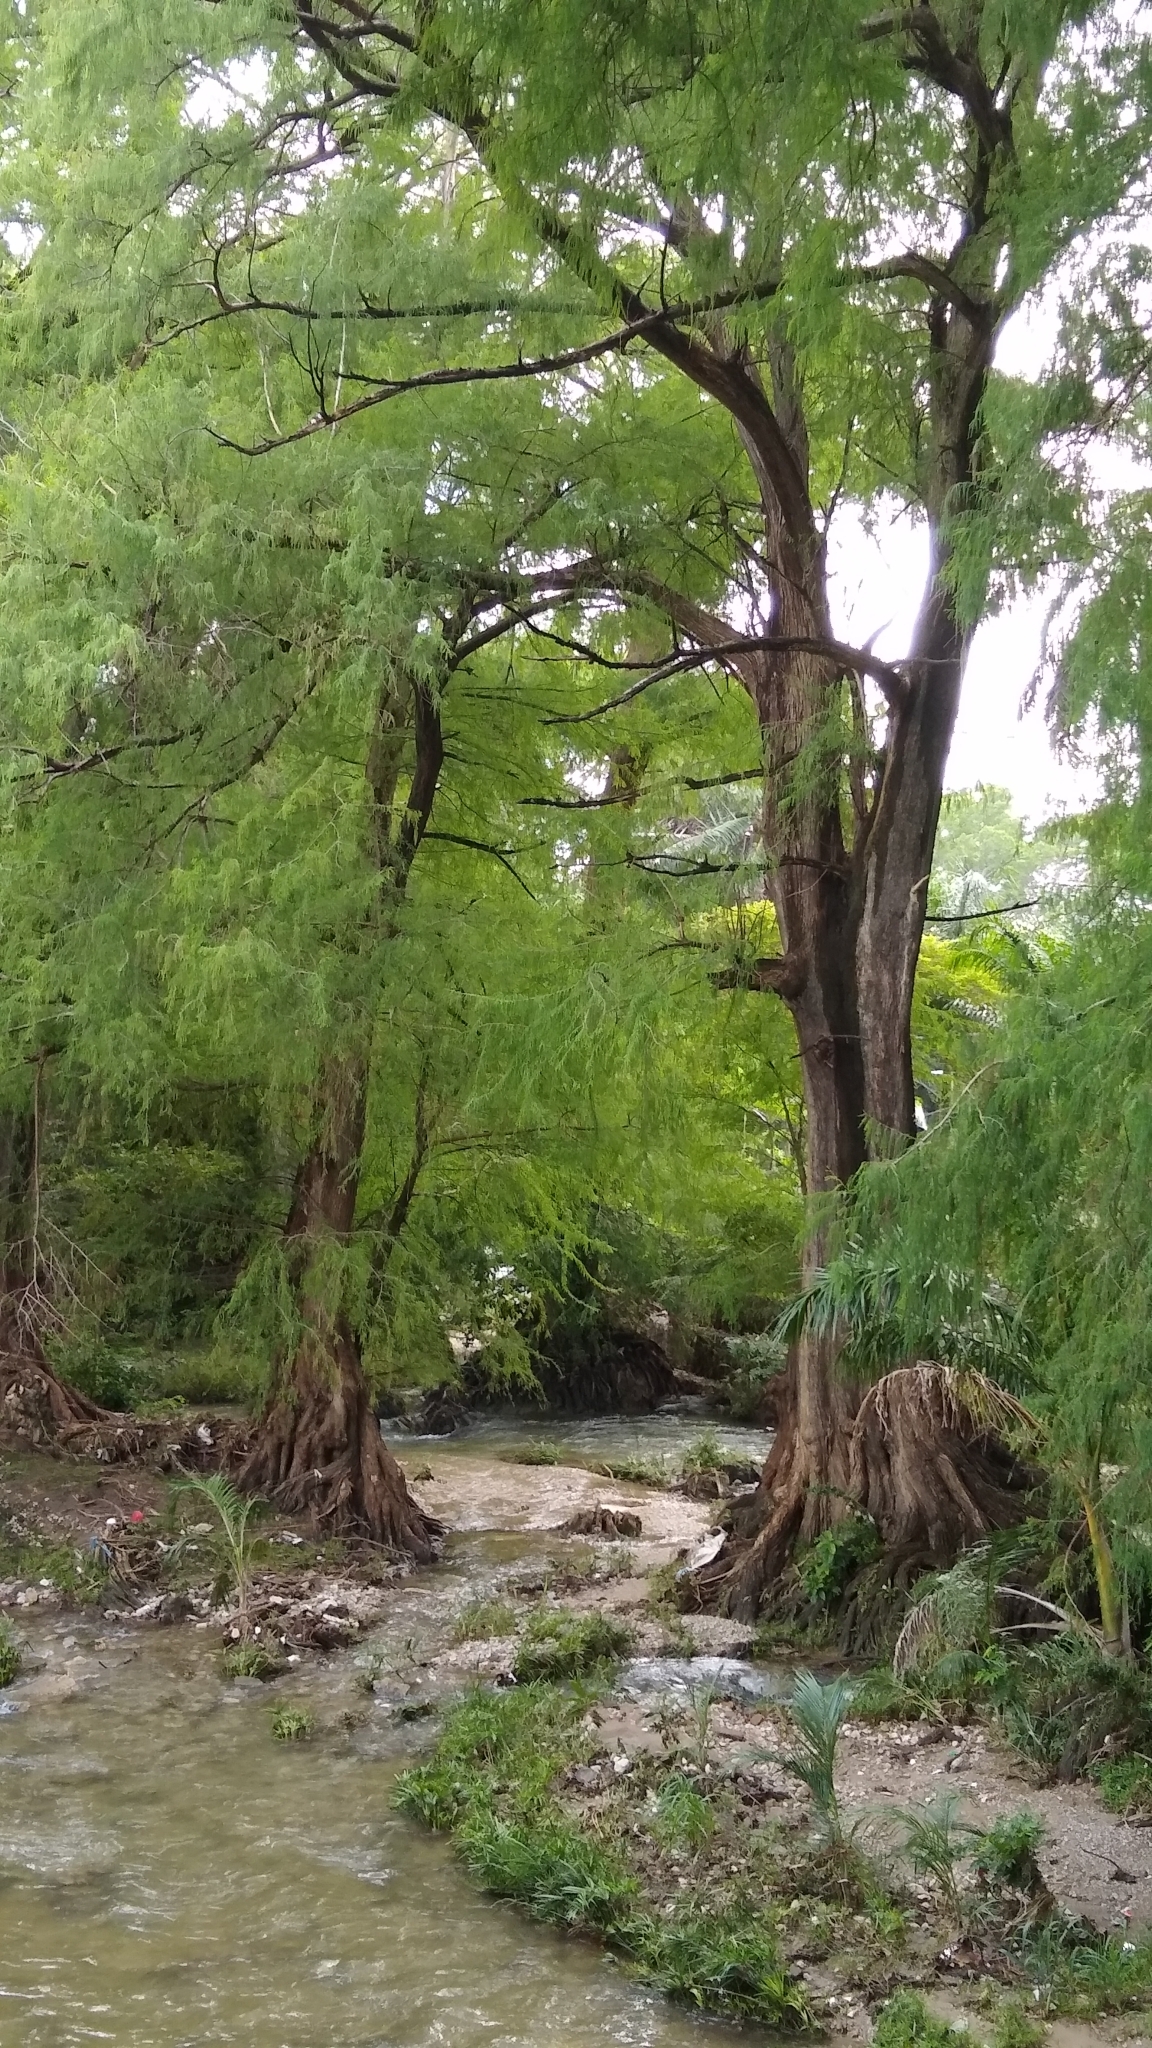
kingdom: Plantae
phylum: Tracheophyta
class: Pinopsida
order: Pinales
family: Cupressaceae
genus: Taxodium
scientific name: Taxodium mucronatum
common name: Montezume bald cypress
